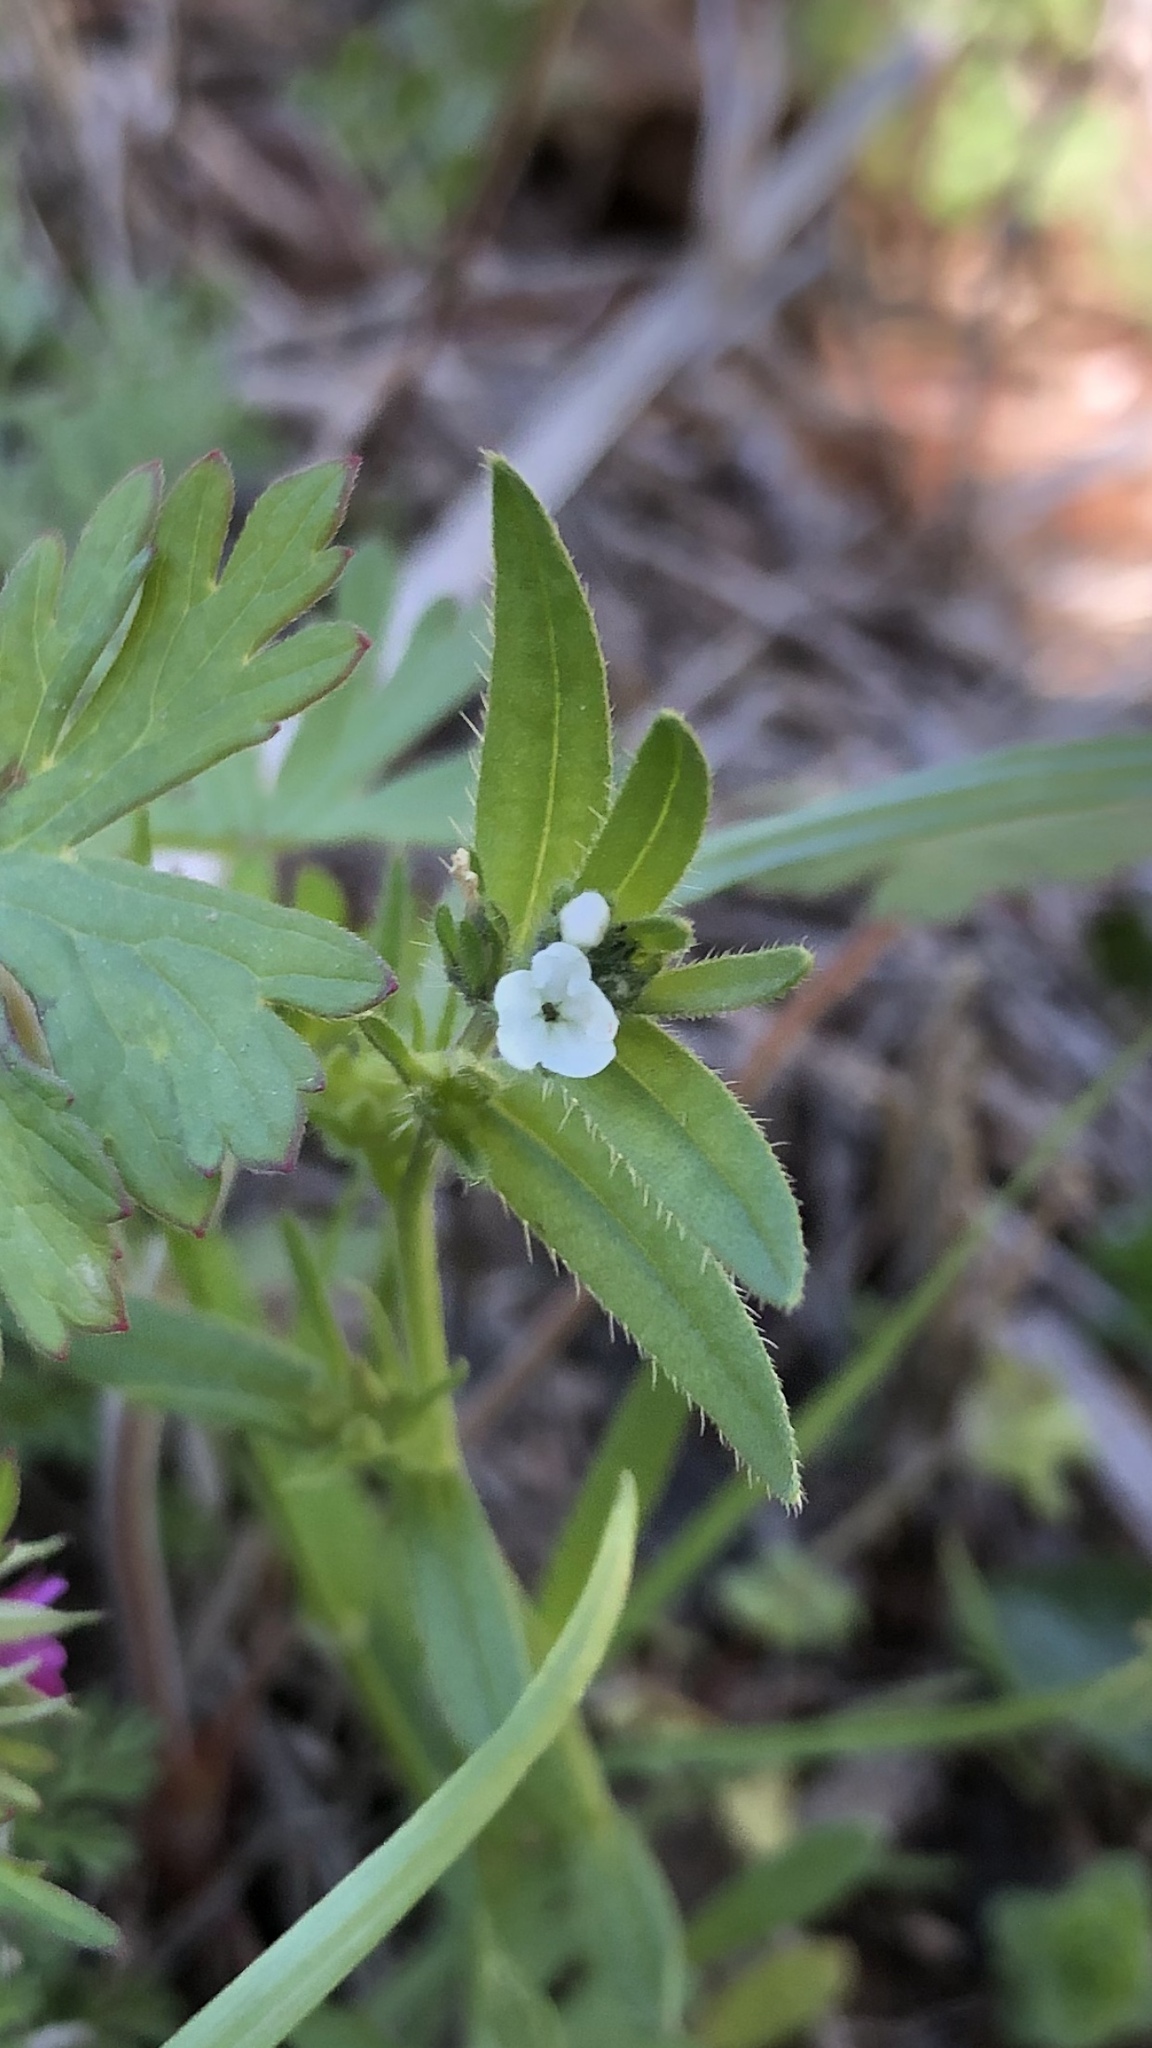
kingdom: Plantae
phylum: Tracheophyta
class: Magnoliopsida
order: Boraginales
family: Boraginaceae
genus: Buglossoides
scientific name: Buglossoides arvensis
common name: Corn gromwell
